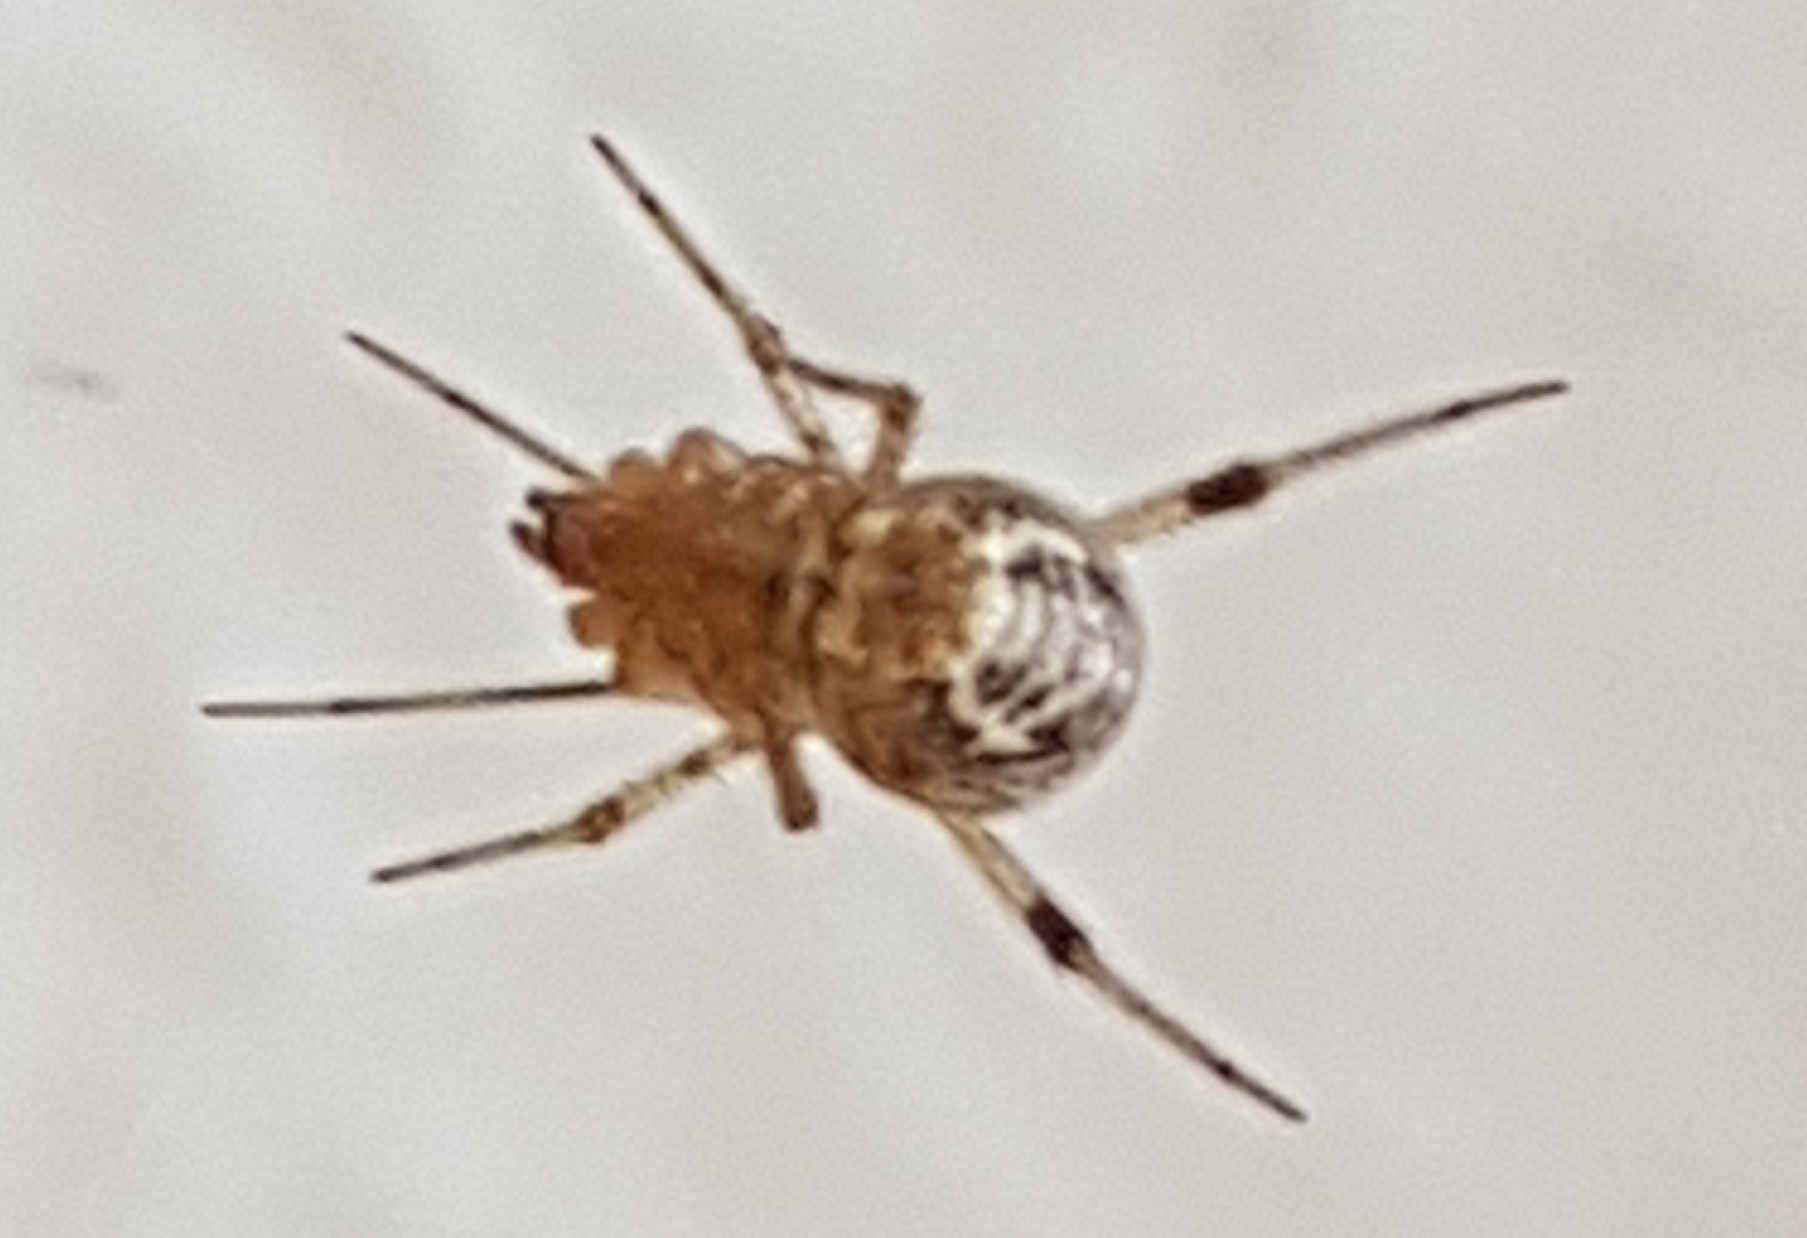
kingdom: Animalia
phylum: Arthropoda
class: Arachnida
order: Araneae
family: Theridiidae
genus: Parasteatoda
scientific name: Parasteatoda tepidariorum
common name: Common house spider
